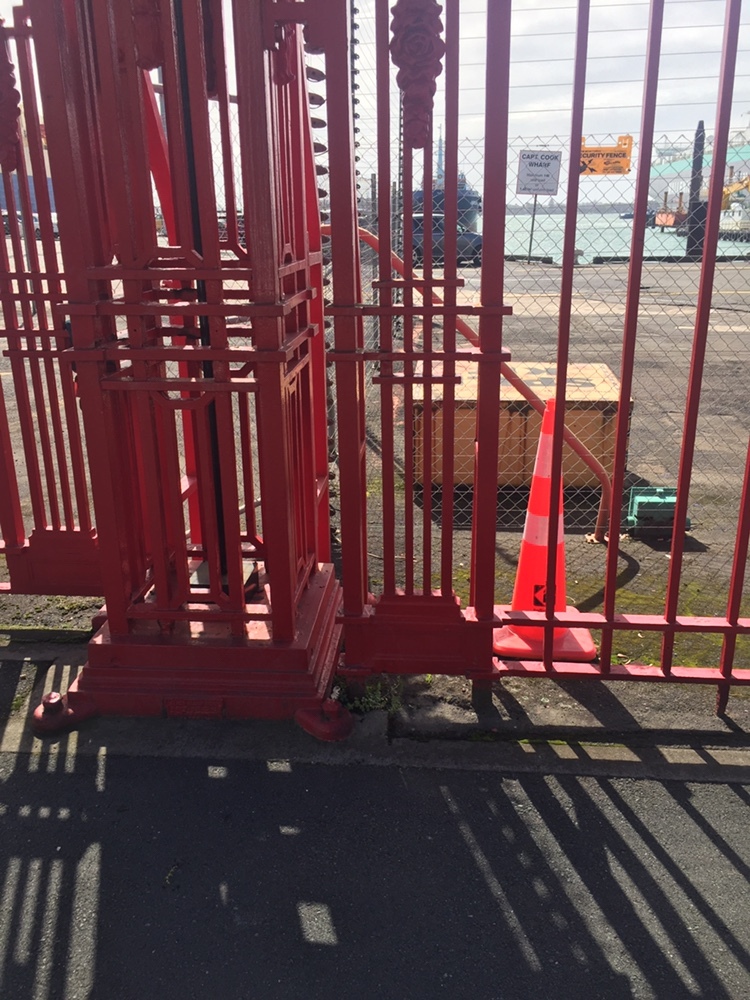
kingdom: Plantae
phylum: Tracheophyta
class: Magnoliopsida
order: Lamiales
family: Plantaginaceae
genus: Veronica
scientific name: Veronica peregrina
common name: Neckweed
